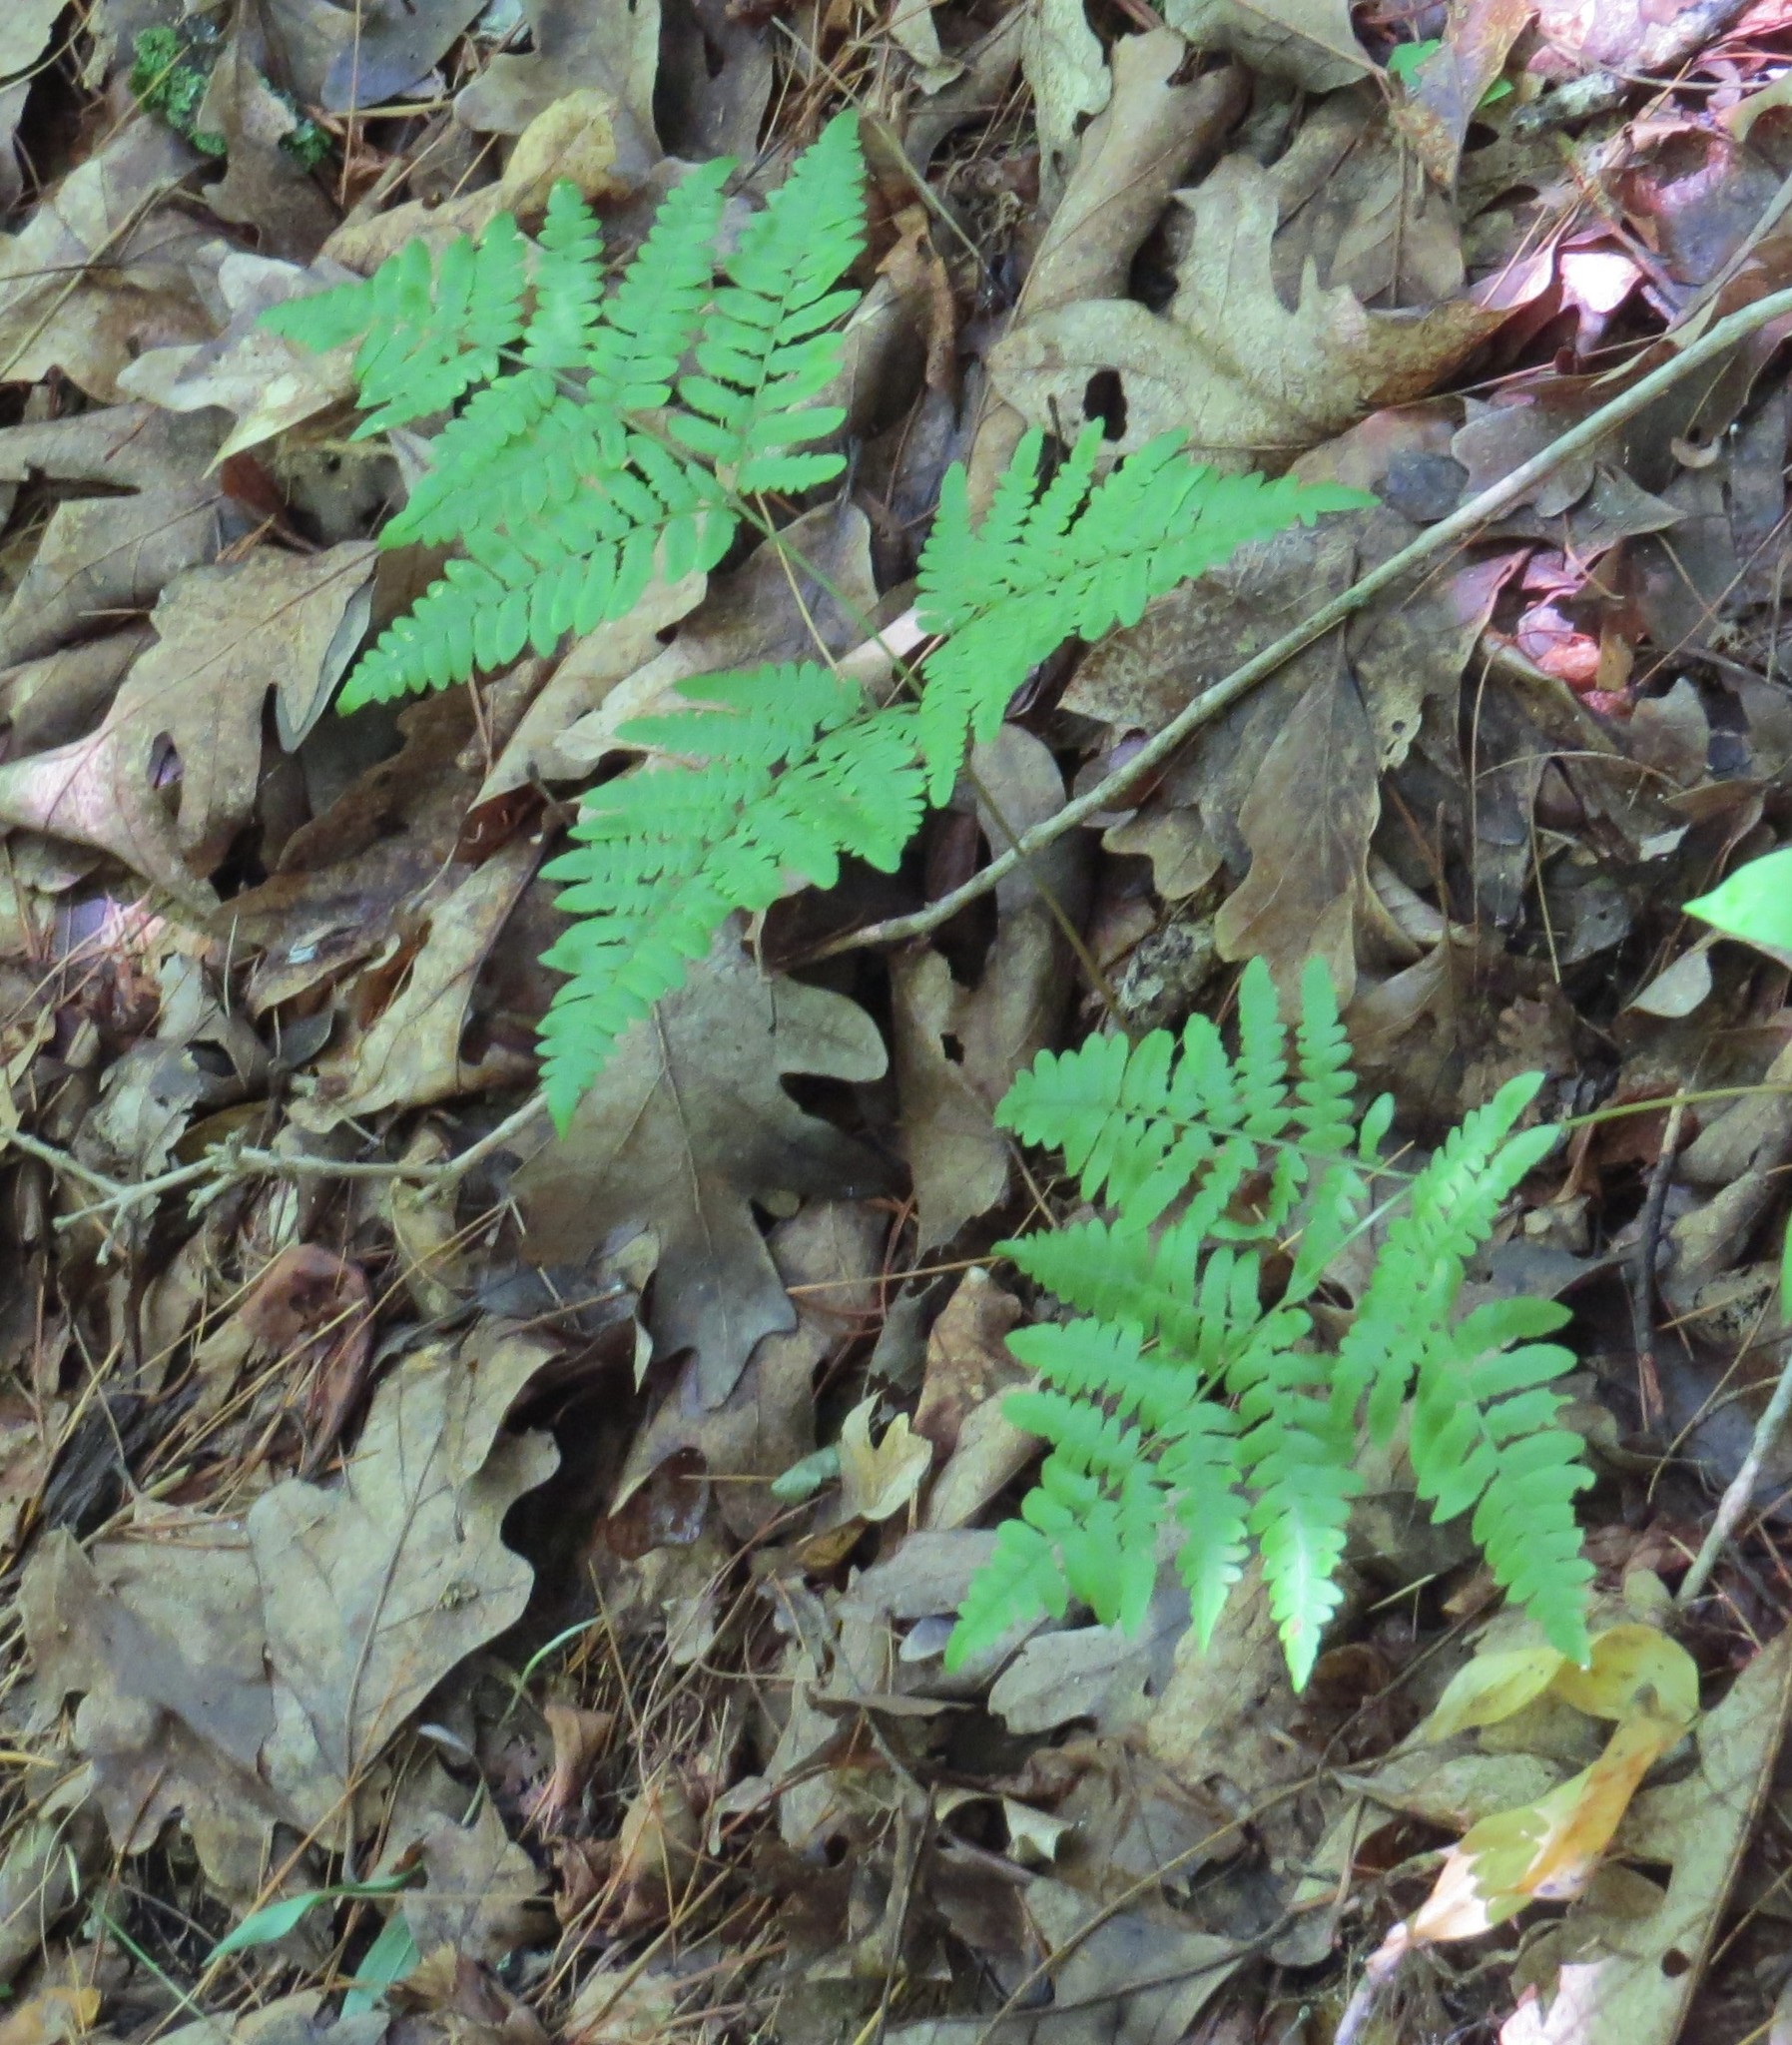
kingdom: Plantae
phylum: Tracheophyta
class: Polypodiopsida
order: Polypodiales
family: Dennstaedtiaceae
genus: Pteridium
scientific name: Pteridium aquilinum
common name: Bracken
